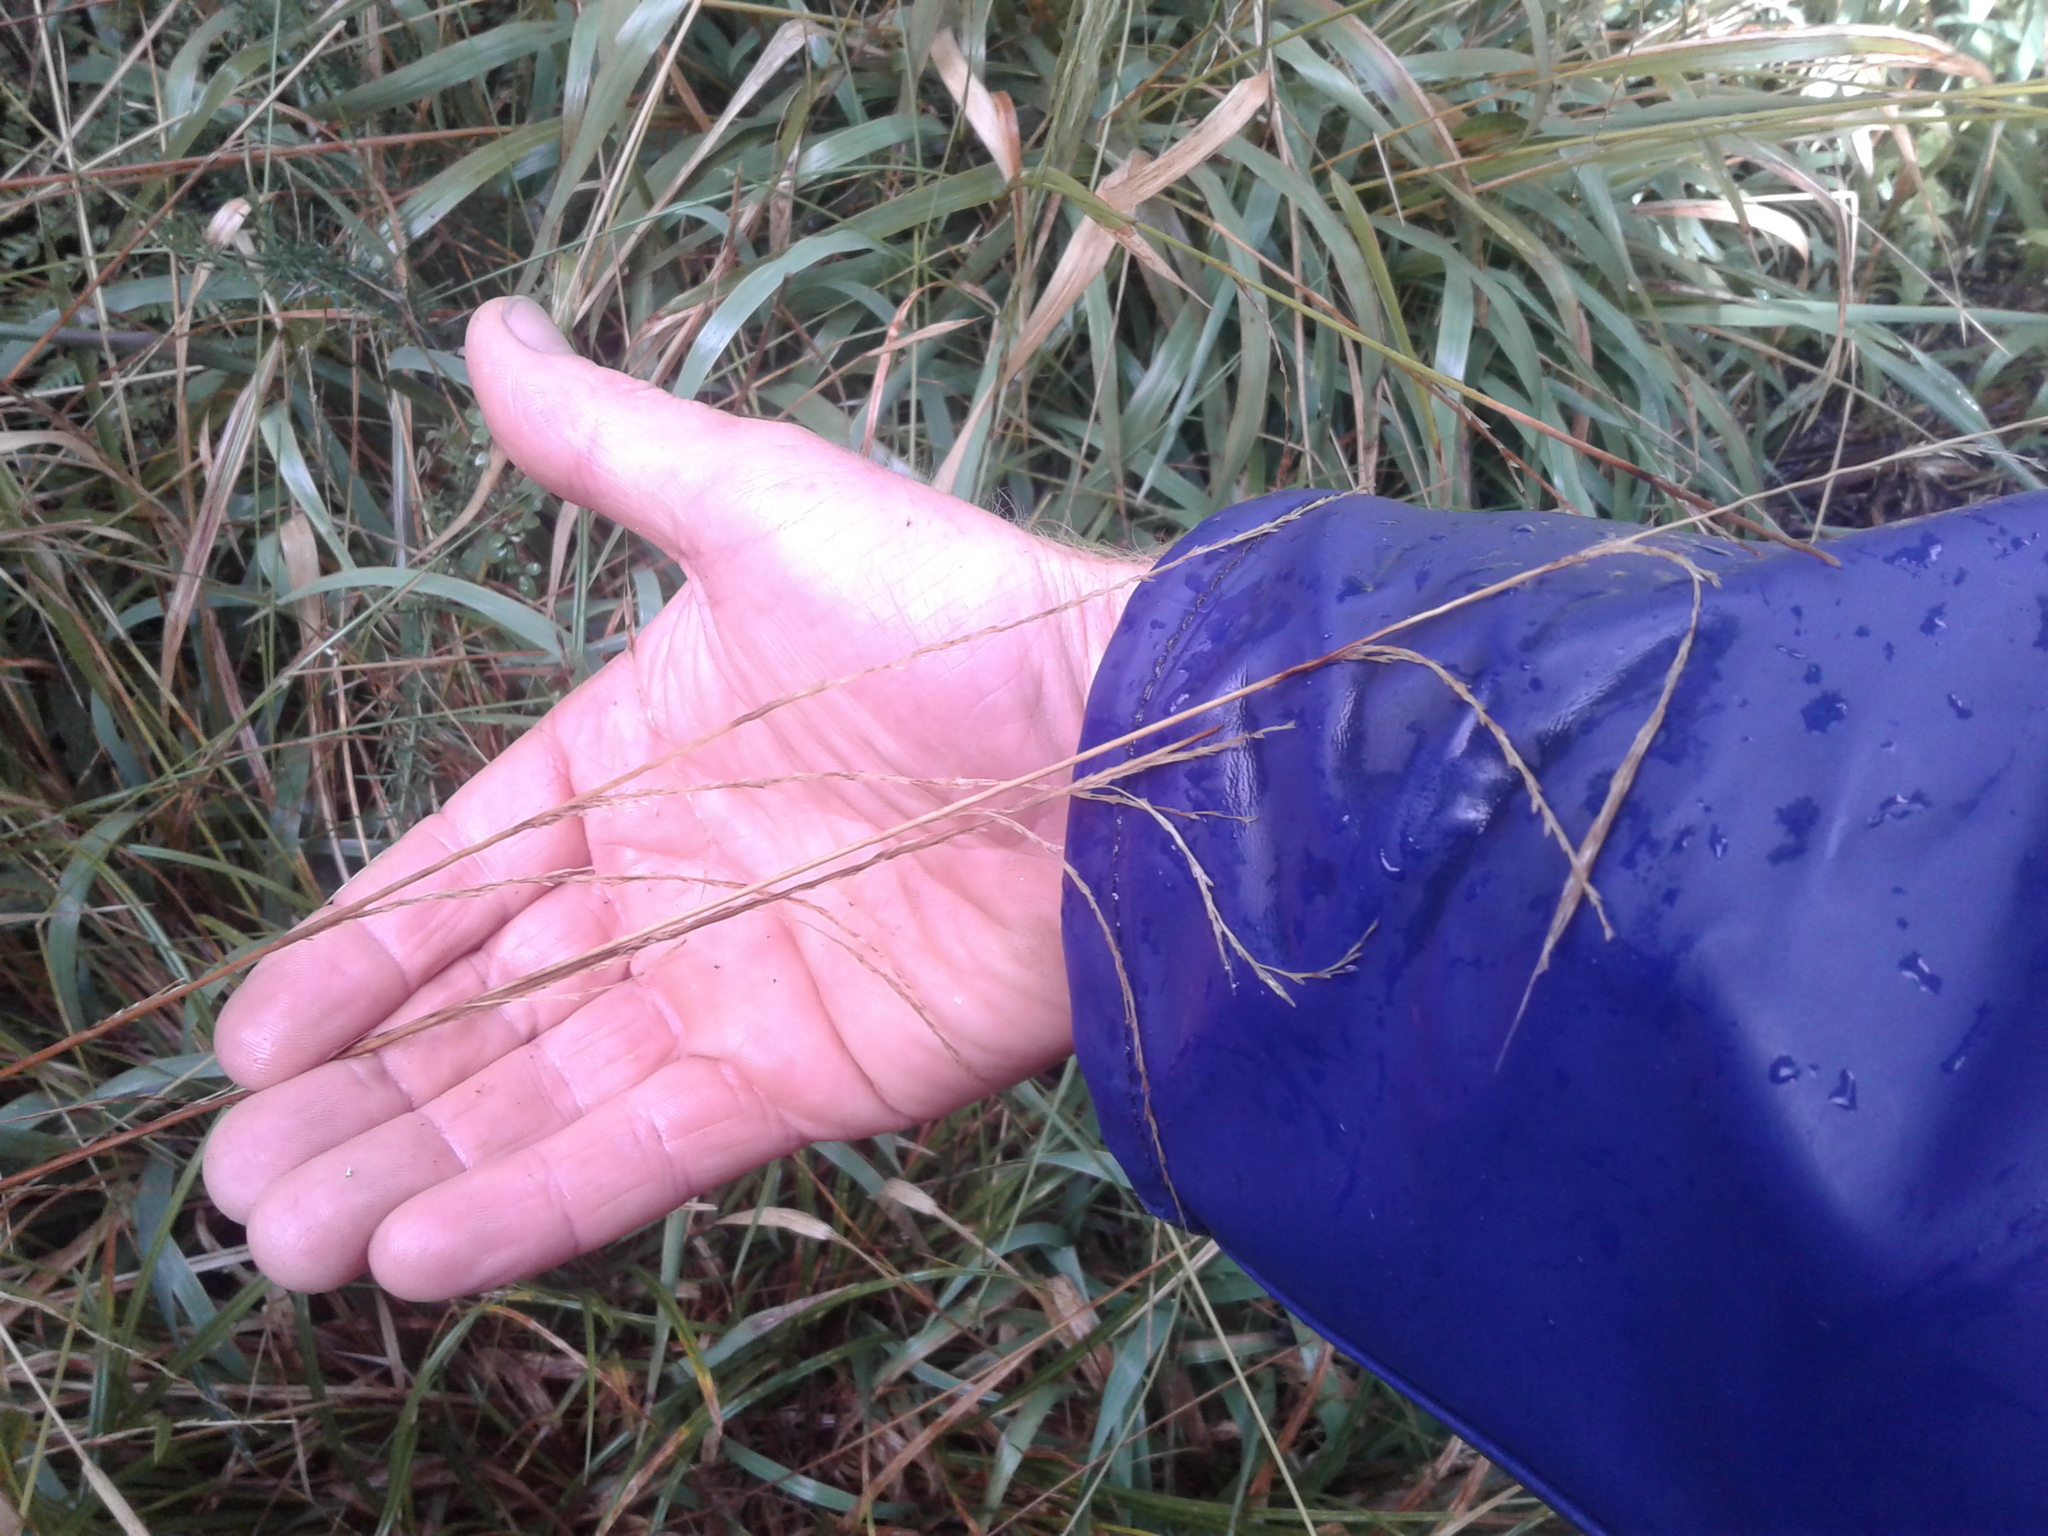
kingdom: Plantae
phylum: Tracheophyta
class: Liliopsida
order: Poales
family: Poaceae
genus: Ehrharta
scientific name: Ehrharta diplax
